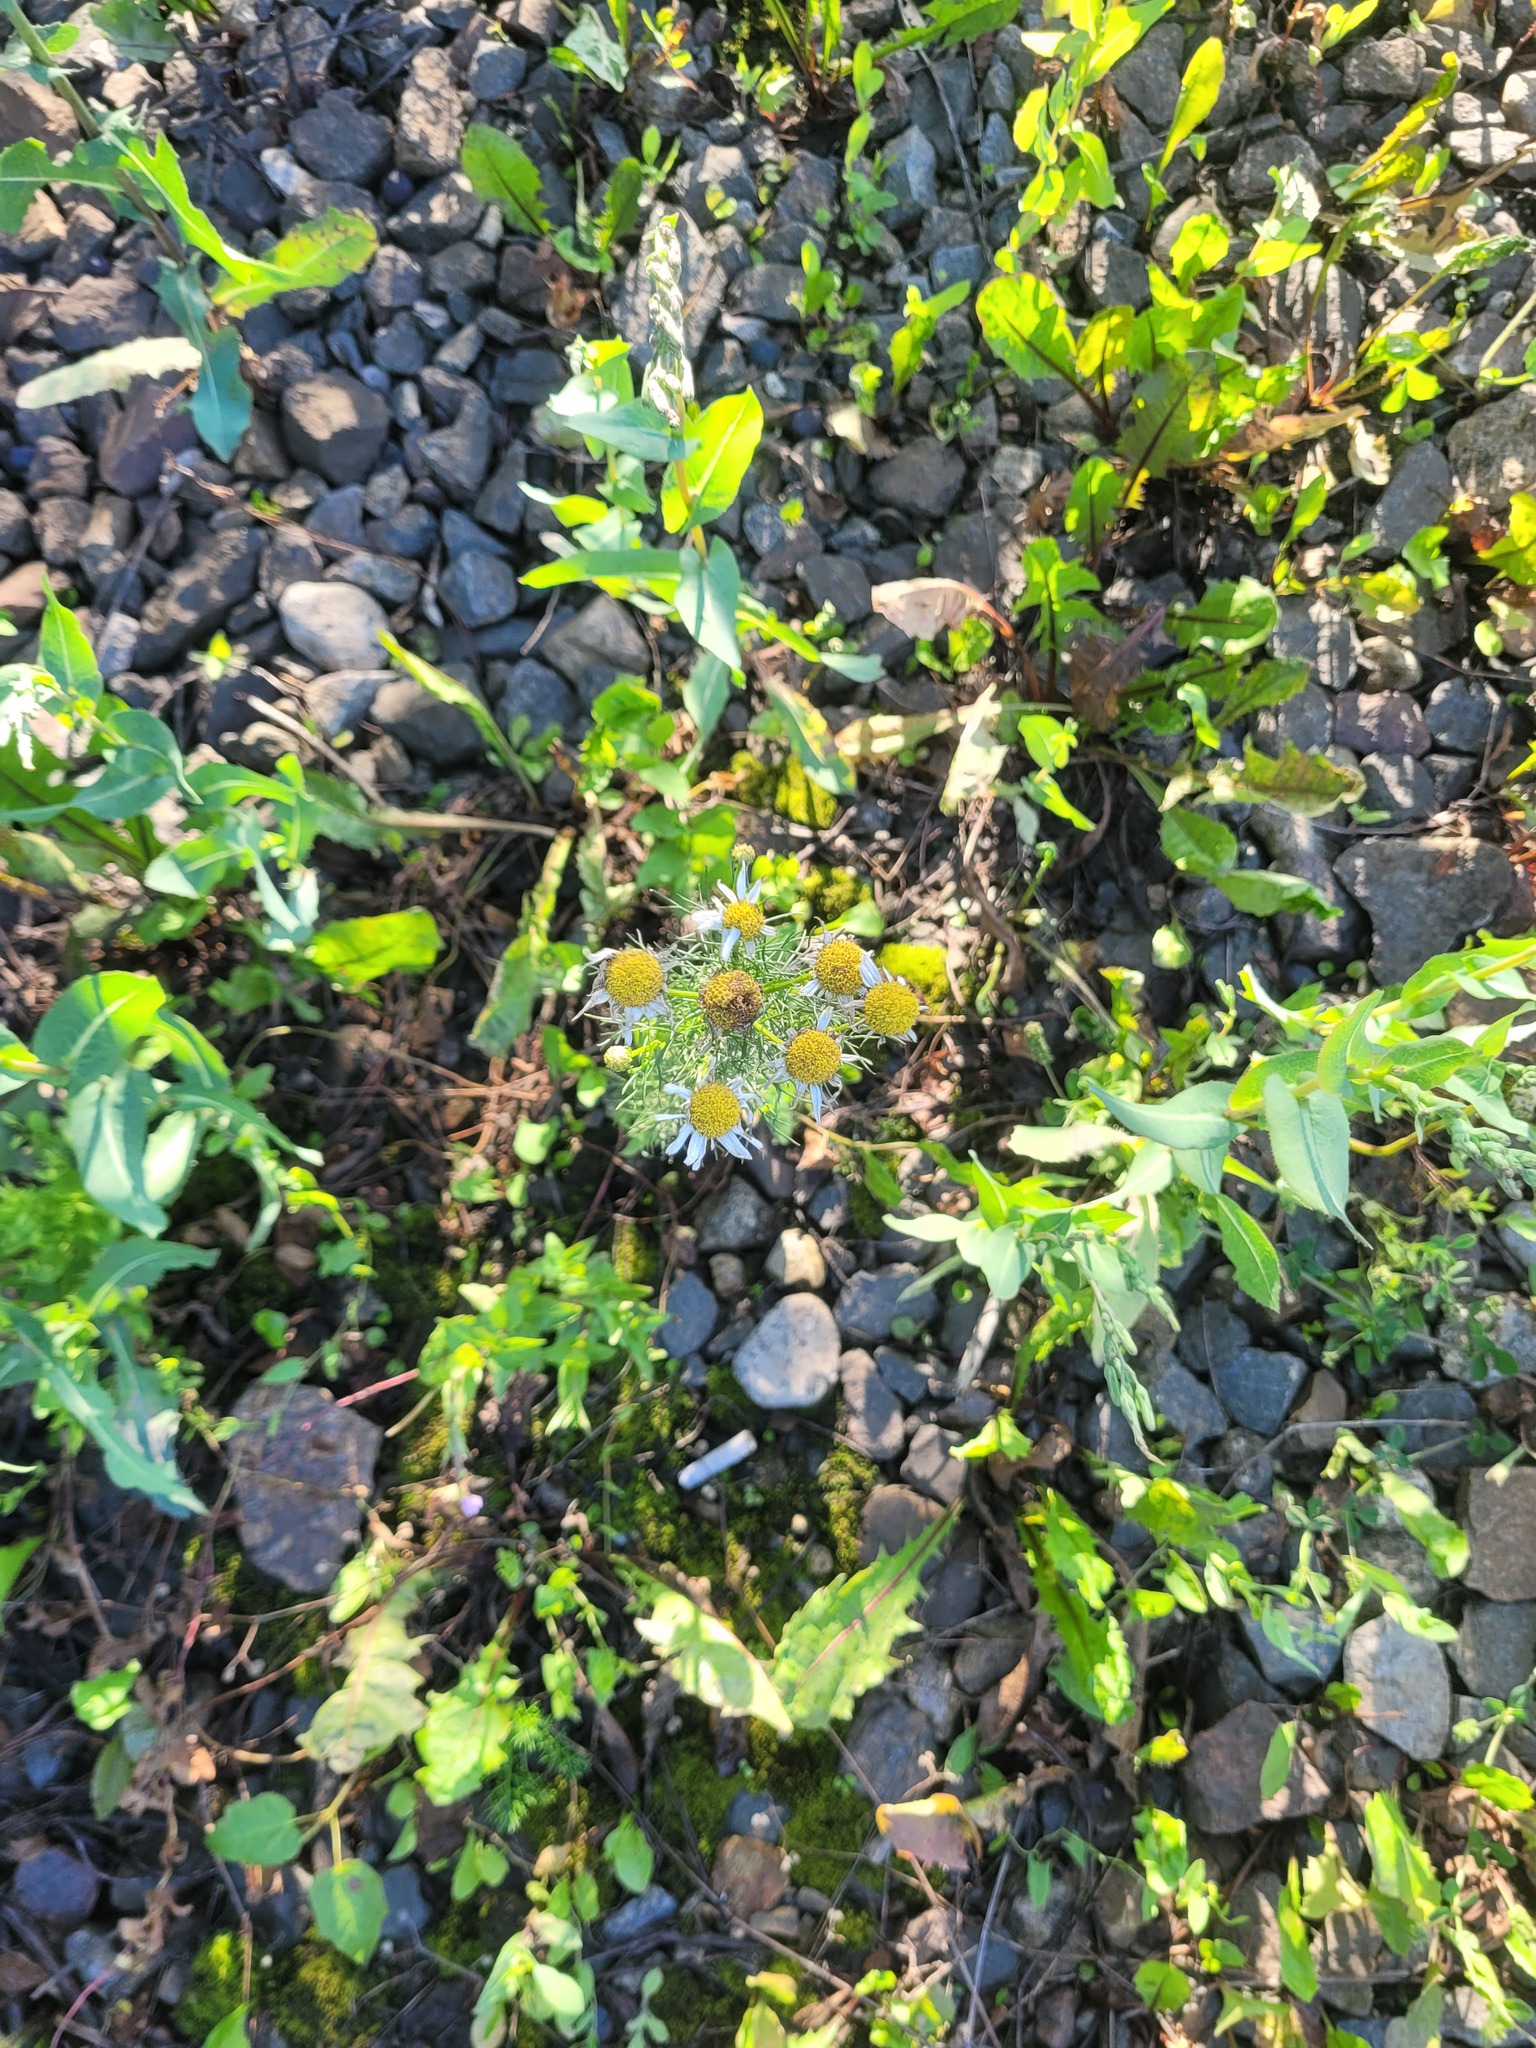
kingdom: Plantae
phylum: Tracheophyta
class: Magnoliopsida
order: Asterales
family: Asteraceae
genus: Tripleurospermum
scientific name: Tripleurospermum inodorum
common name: Scentless mayweed
